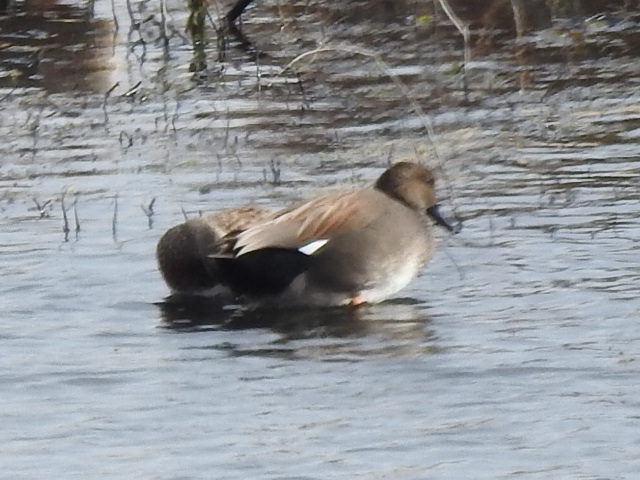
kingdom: Animalia
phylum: Chordata
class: Aves
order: Anseriformes
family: Anatidae
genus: Mareca
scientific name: Mareca strepera
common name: Gadwall
